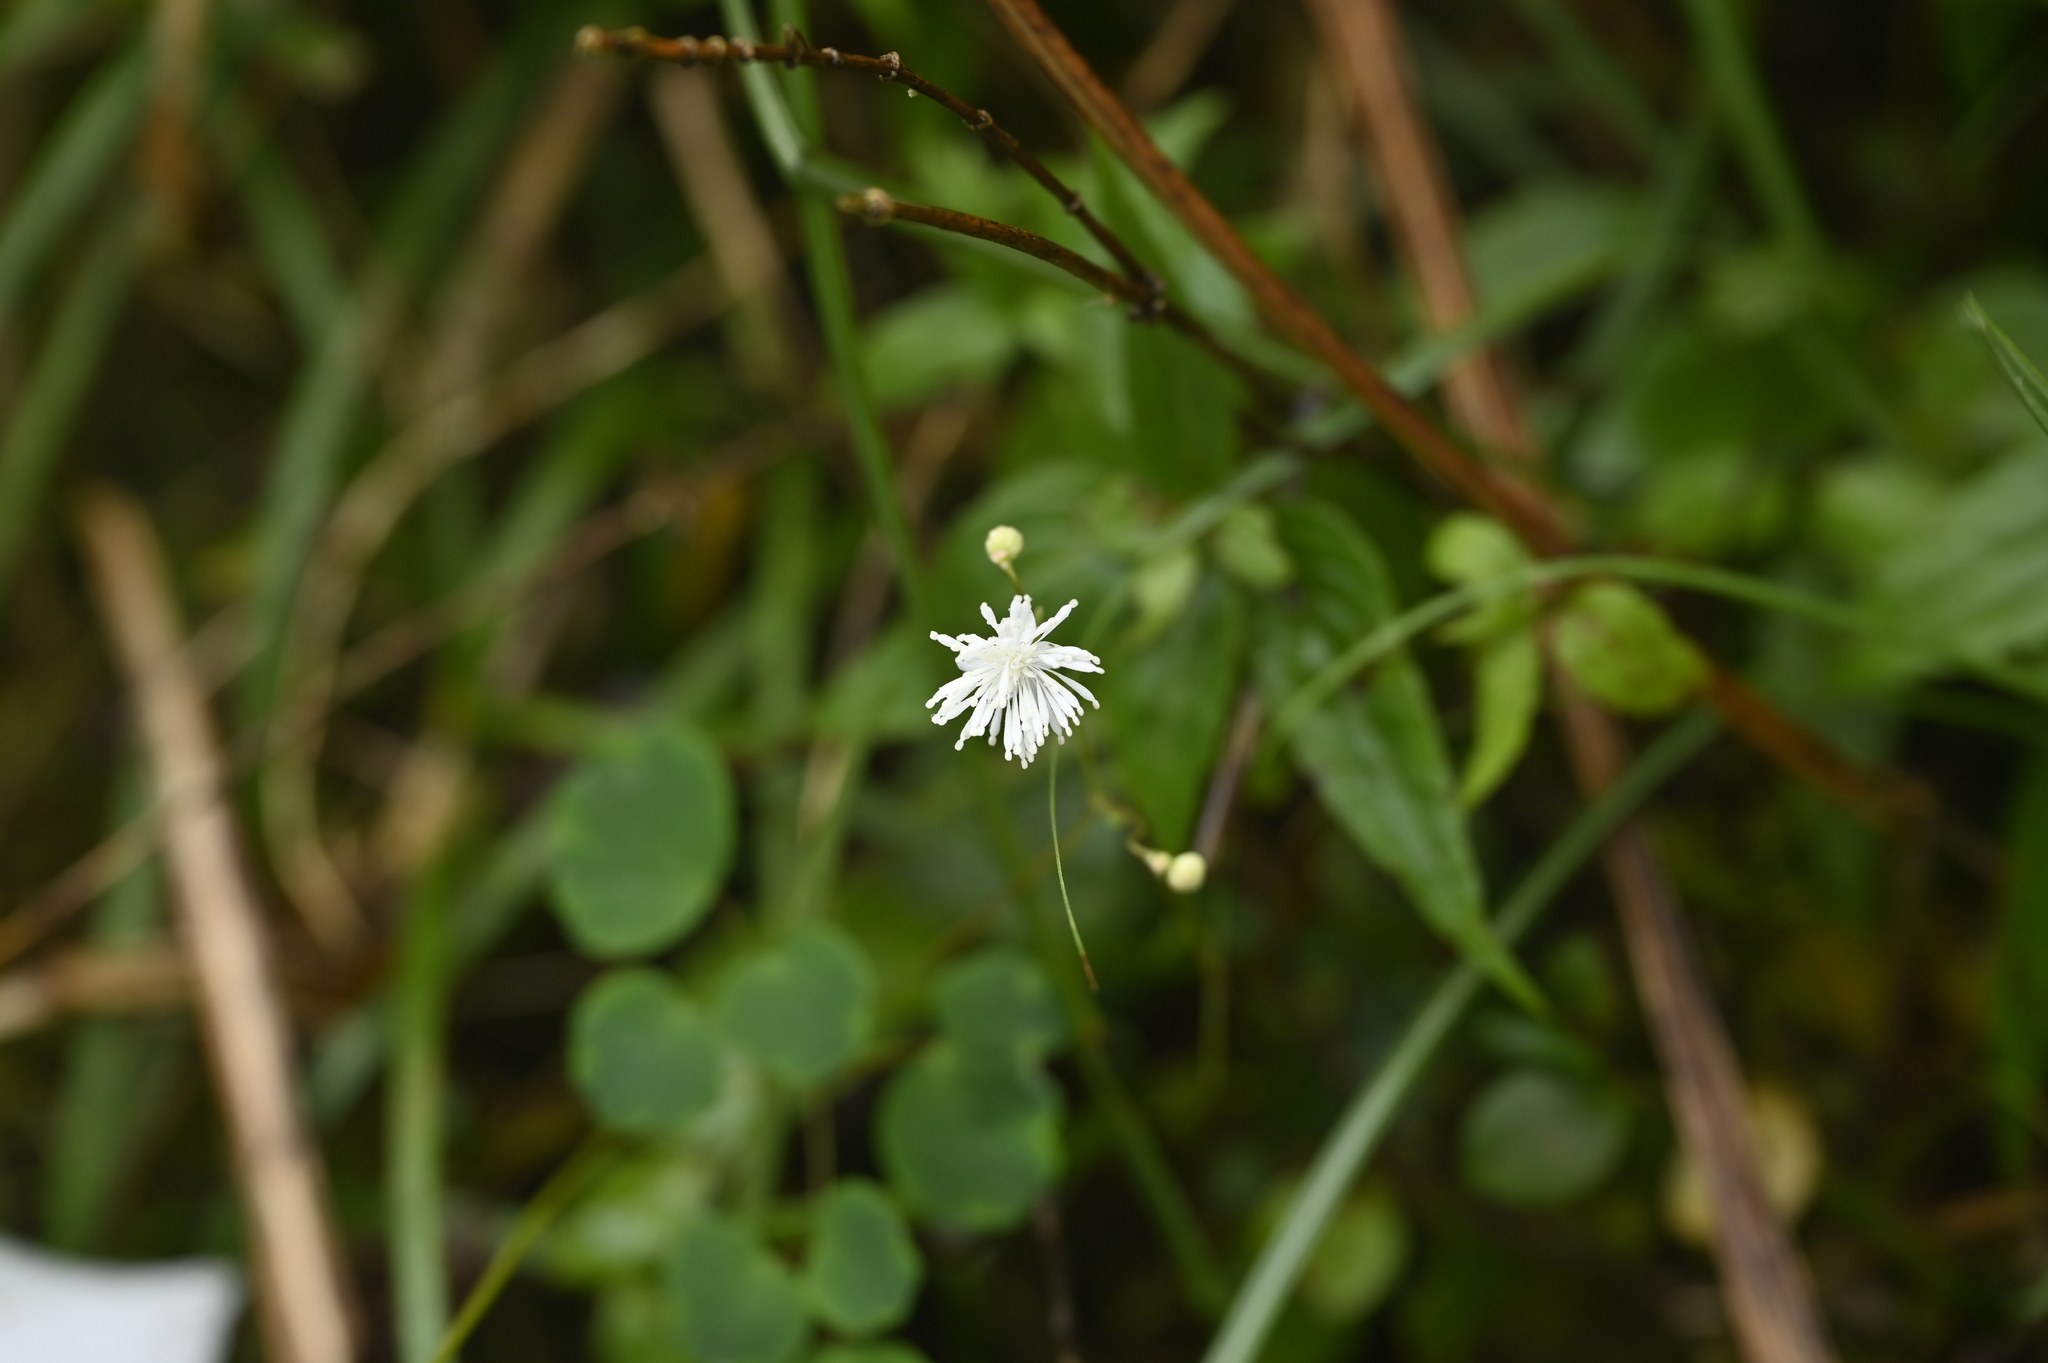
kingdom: Plantae
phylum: Tracheophyta
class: Magnoliopsida
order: Ranunculales
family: Ranunculaceae
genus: Thalictrum
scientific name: Thalictrum urbaini
